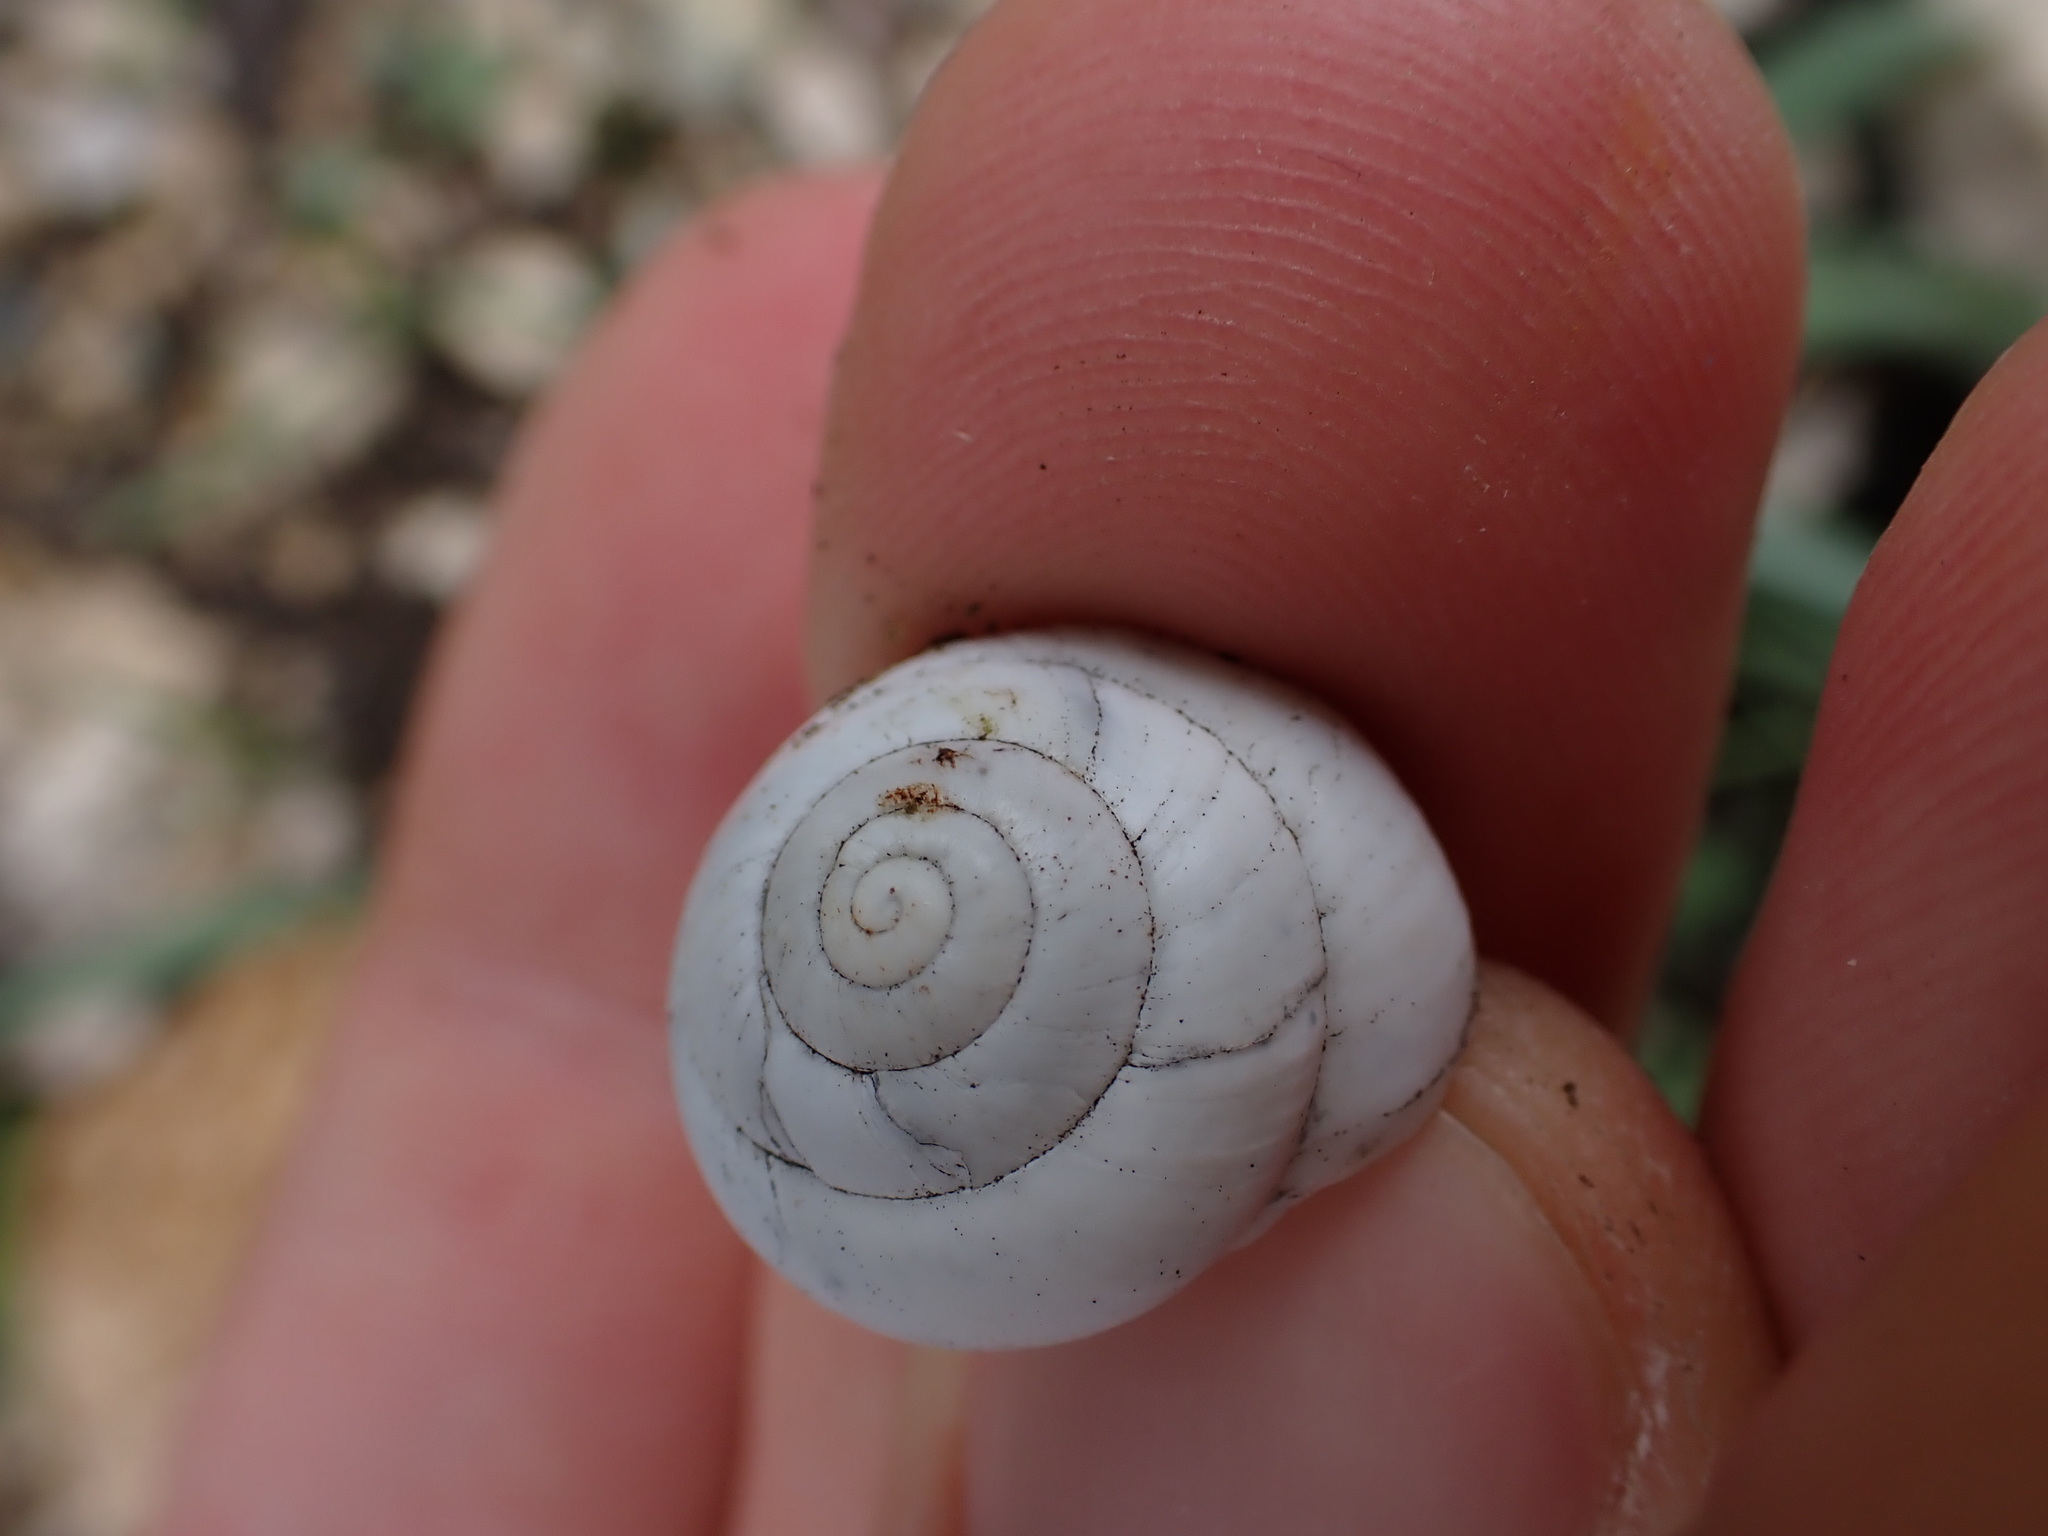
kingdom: Animalia
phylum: Mollusca
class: Gastropoda
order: Stylommatophora
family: Sphincterochilidae
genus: Sphincterochila
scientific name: Sphincterochila candidissima
